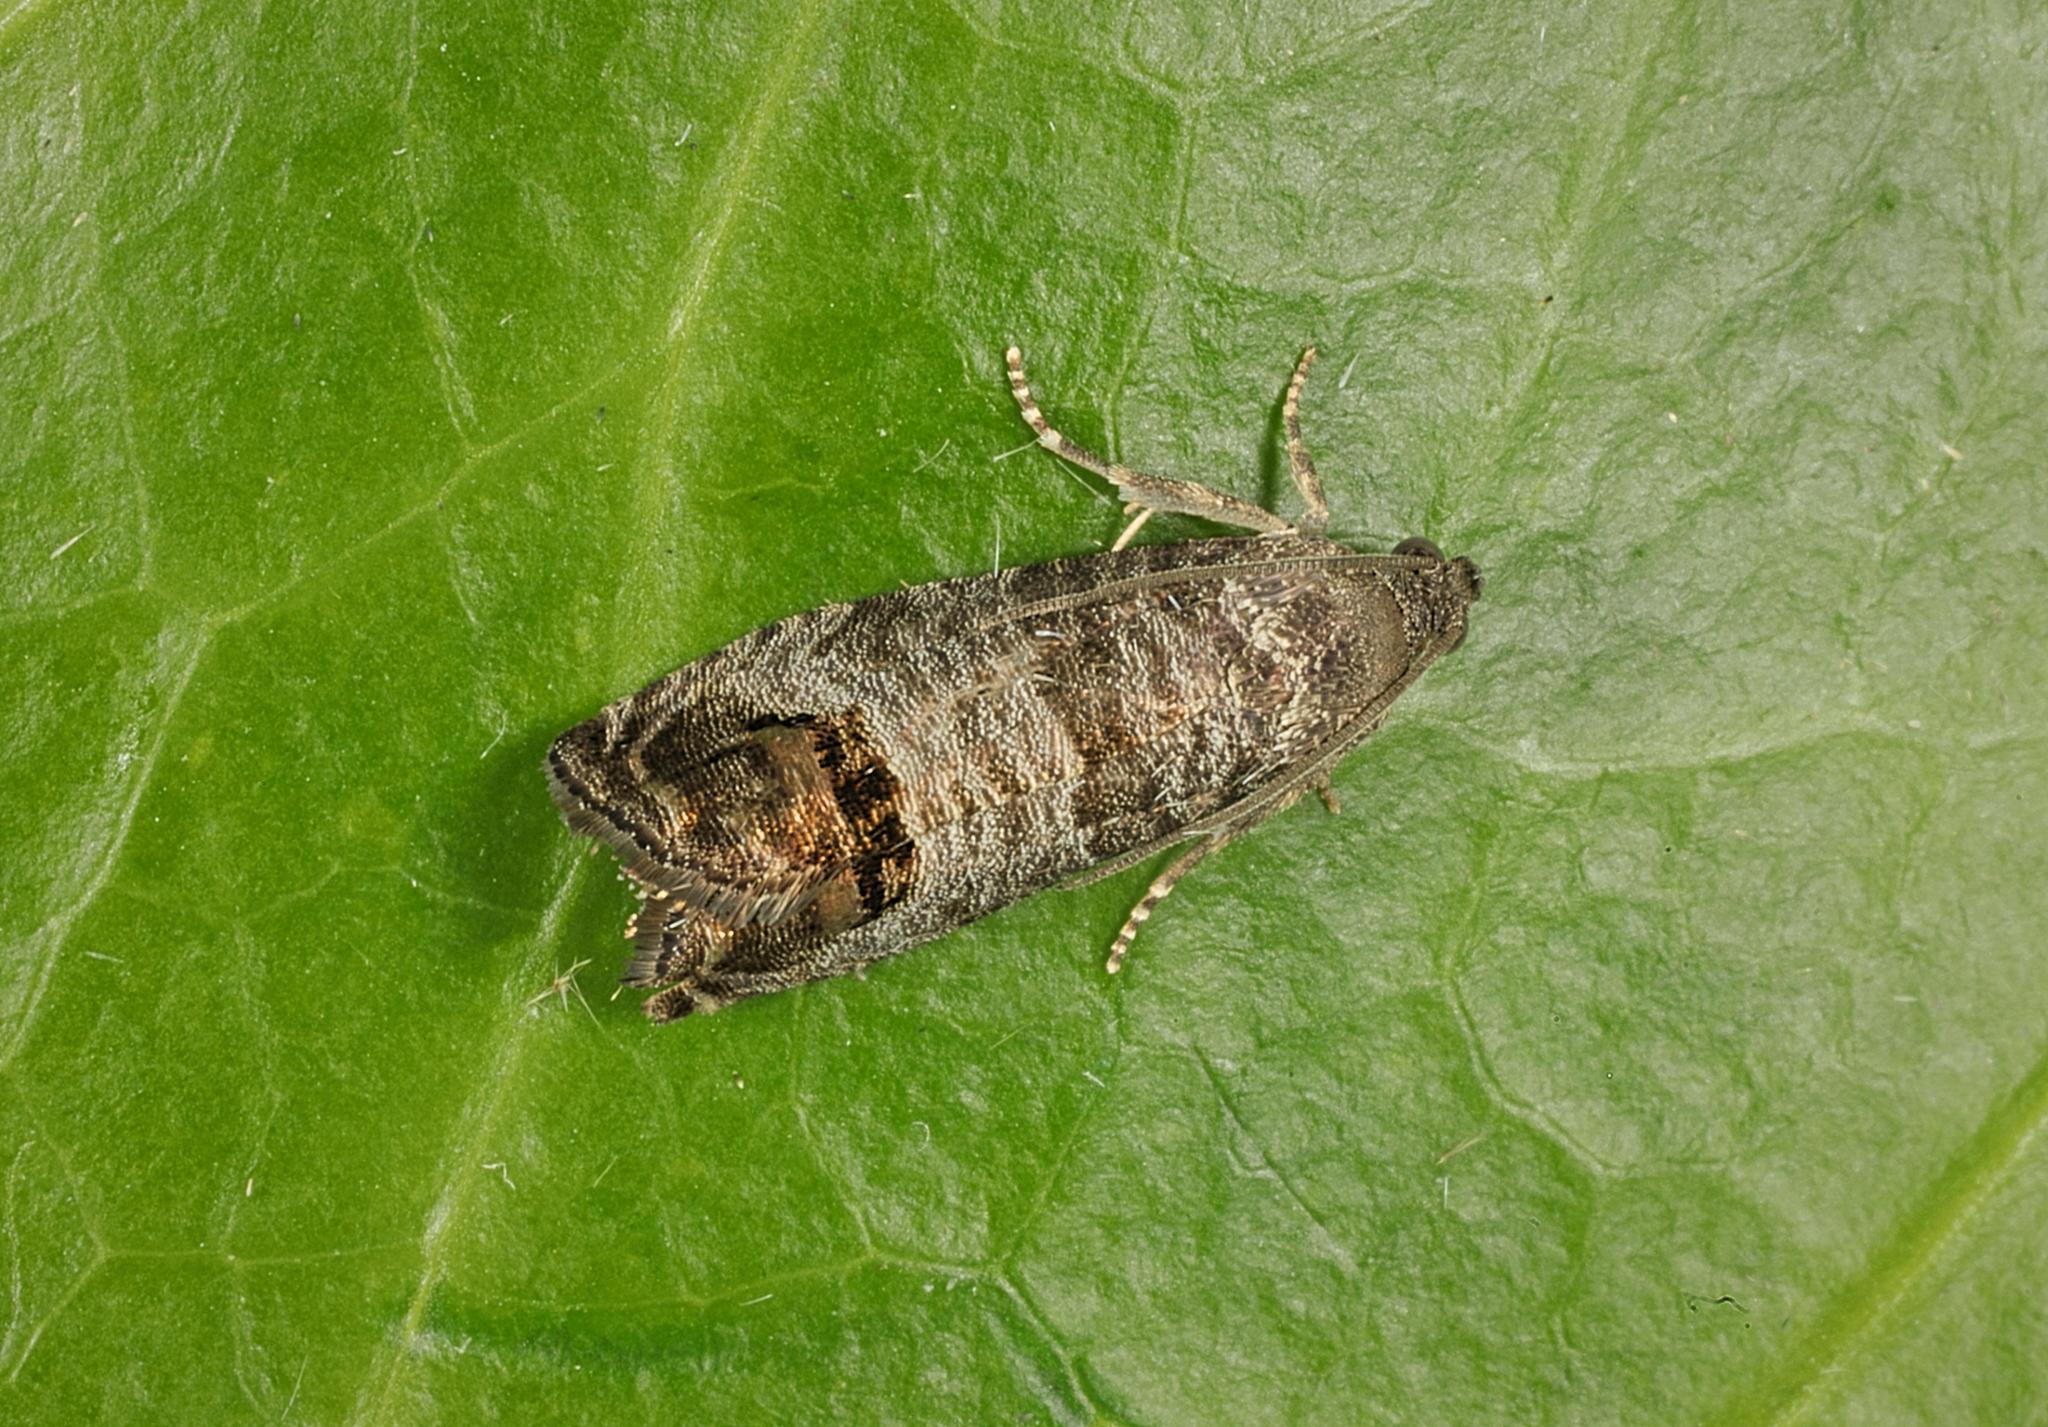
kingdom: Animalia
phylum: Arthropoda
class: Insecta
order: Lepidoptera
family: Tortricidae
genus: Cydia
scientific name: Cydia pomonella
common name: Codling moth
